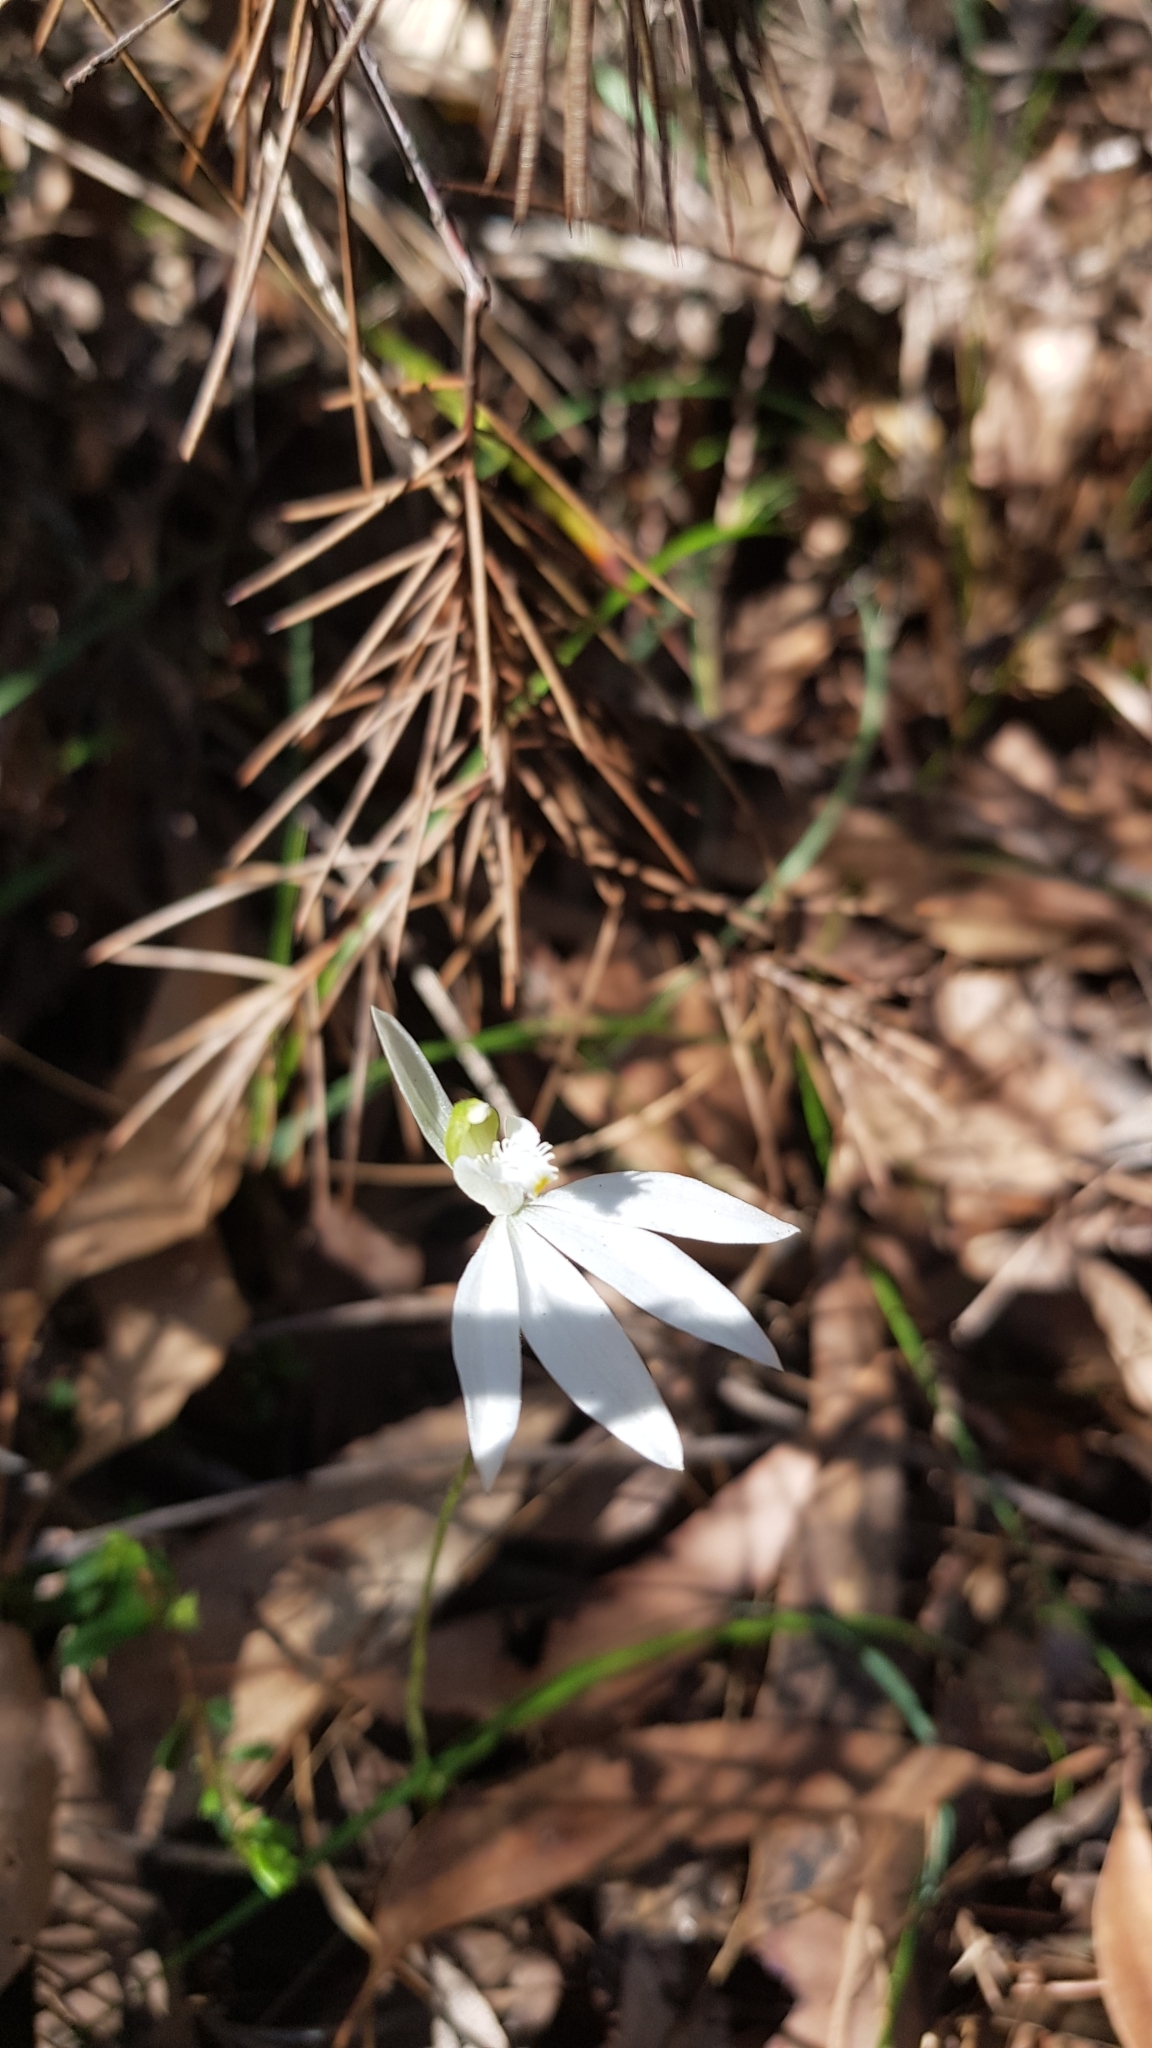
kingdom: Plantae
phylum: Tracheophyta
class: Liliopsida
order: Asparagales
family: Orchidaceae
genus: Caladenia
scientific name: Caladenia catenata
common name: White caladenia
